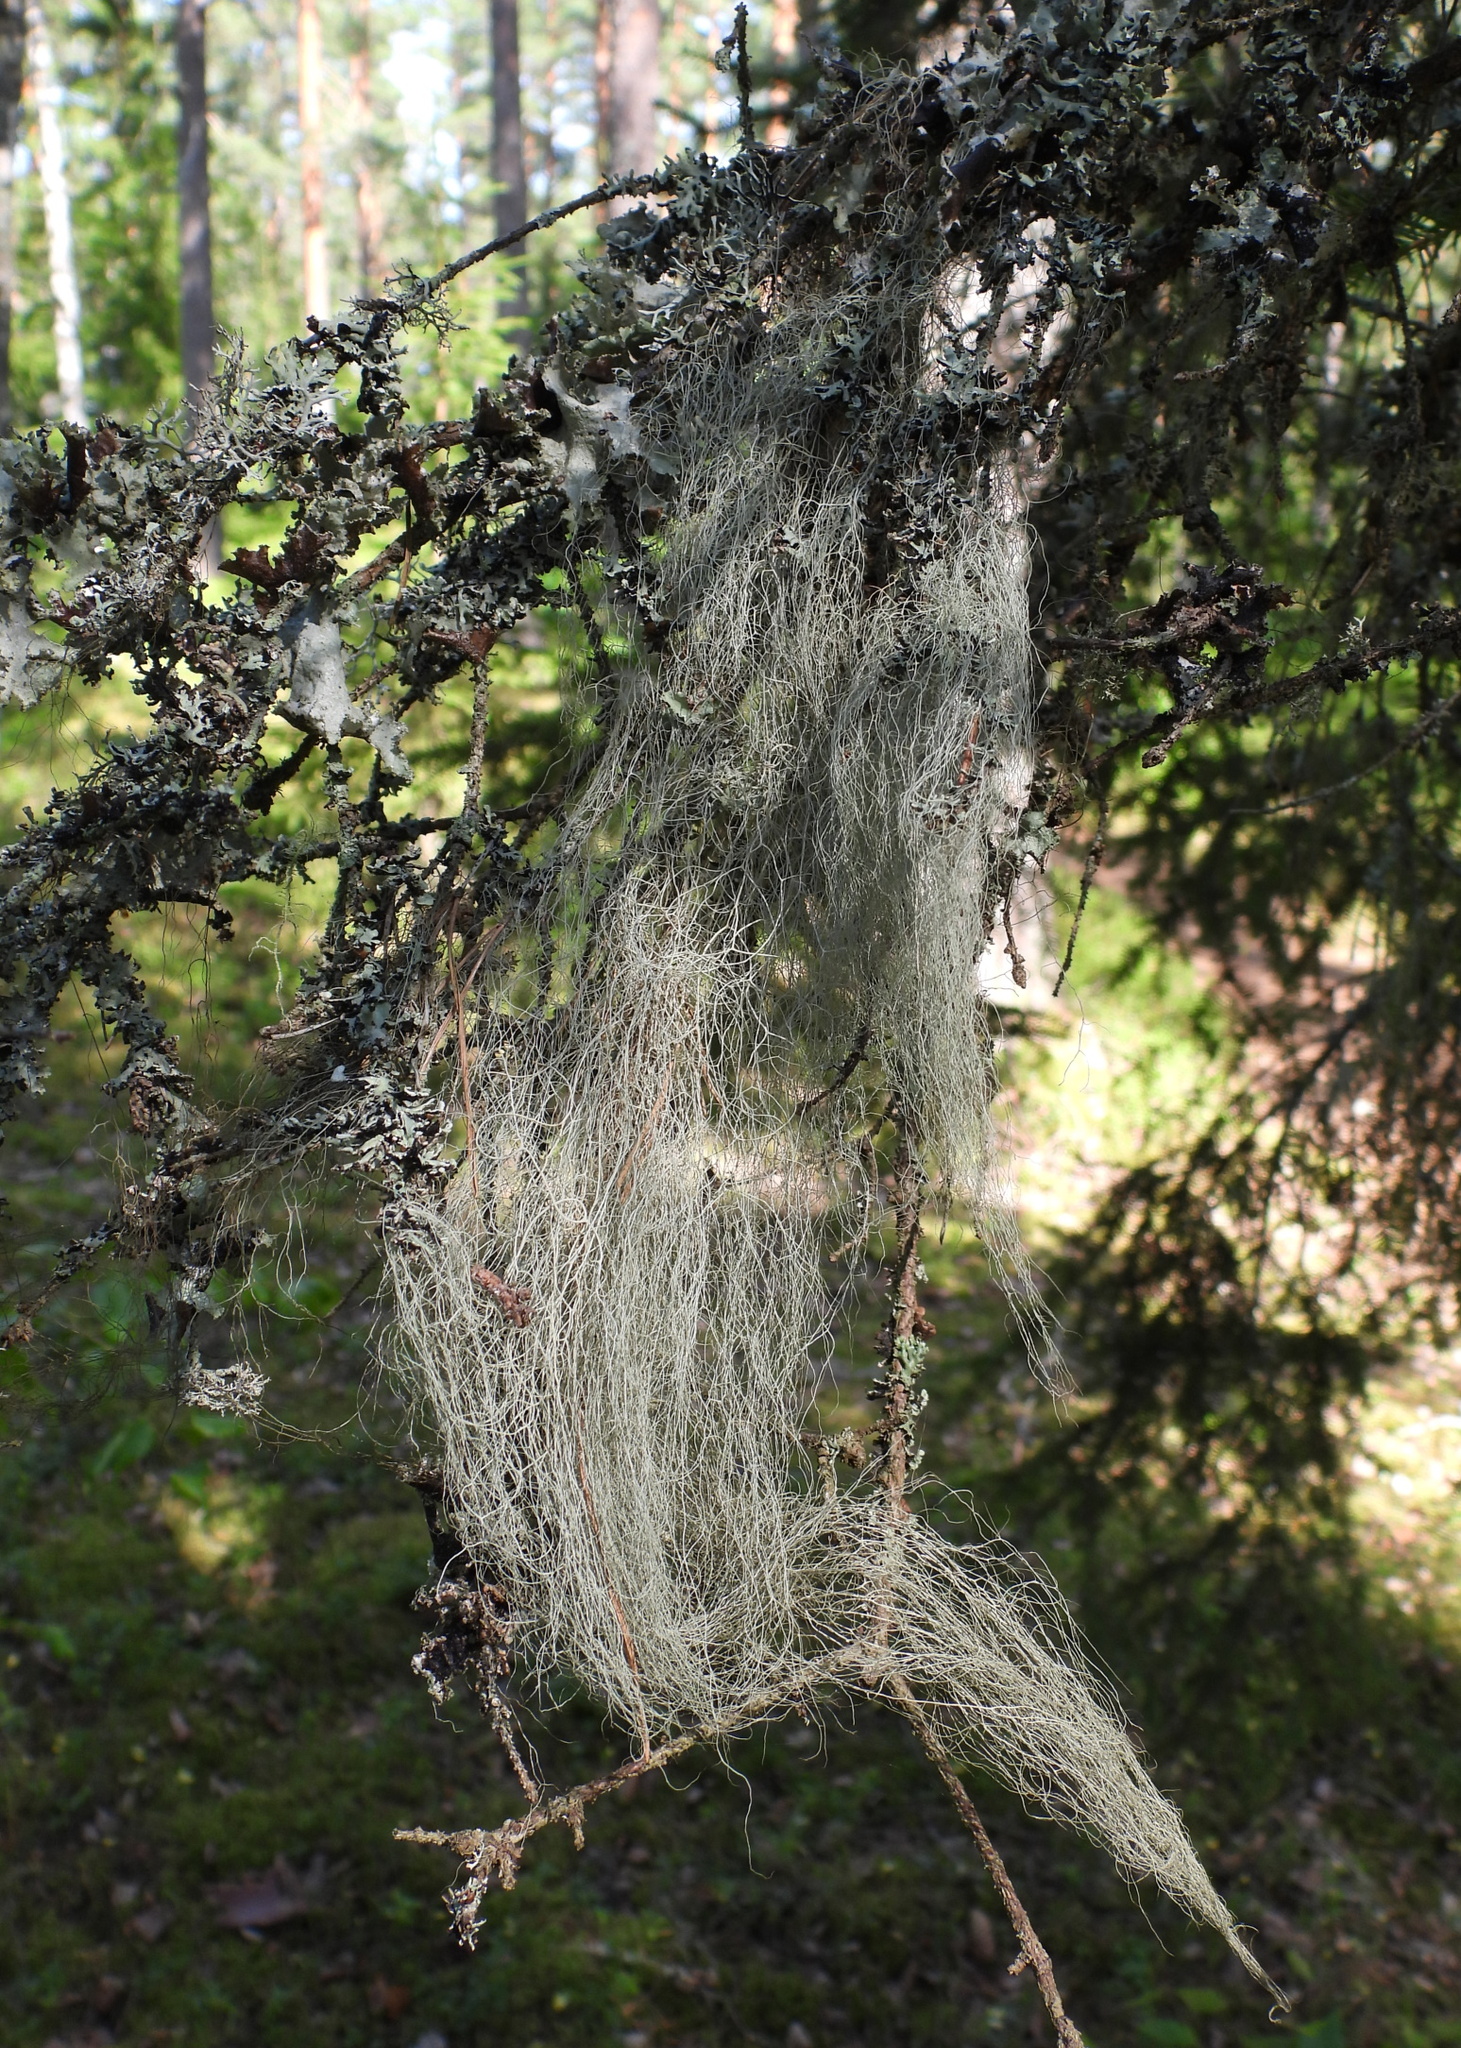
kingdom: Fungi
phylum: Ascomycota
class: Lecanoromycetes
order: Lecanorales
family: Parmeliaceae
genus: Bryoria
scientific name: Bryoria fuscescens
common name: Pale-footed horsehair lichen
